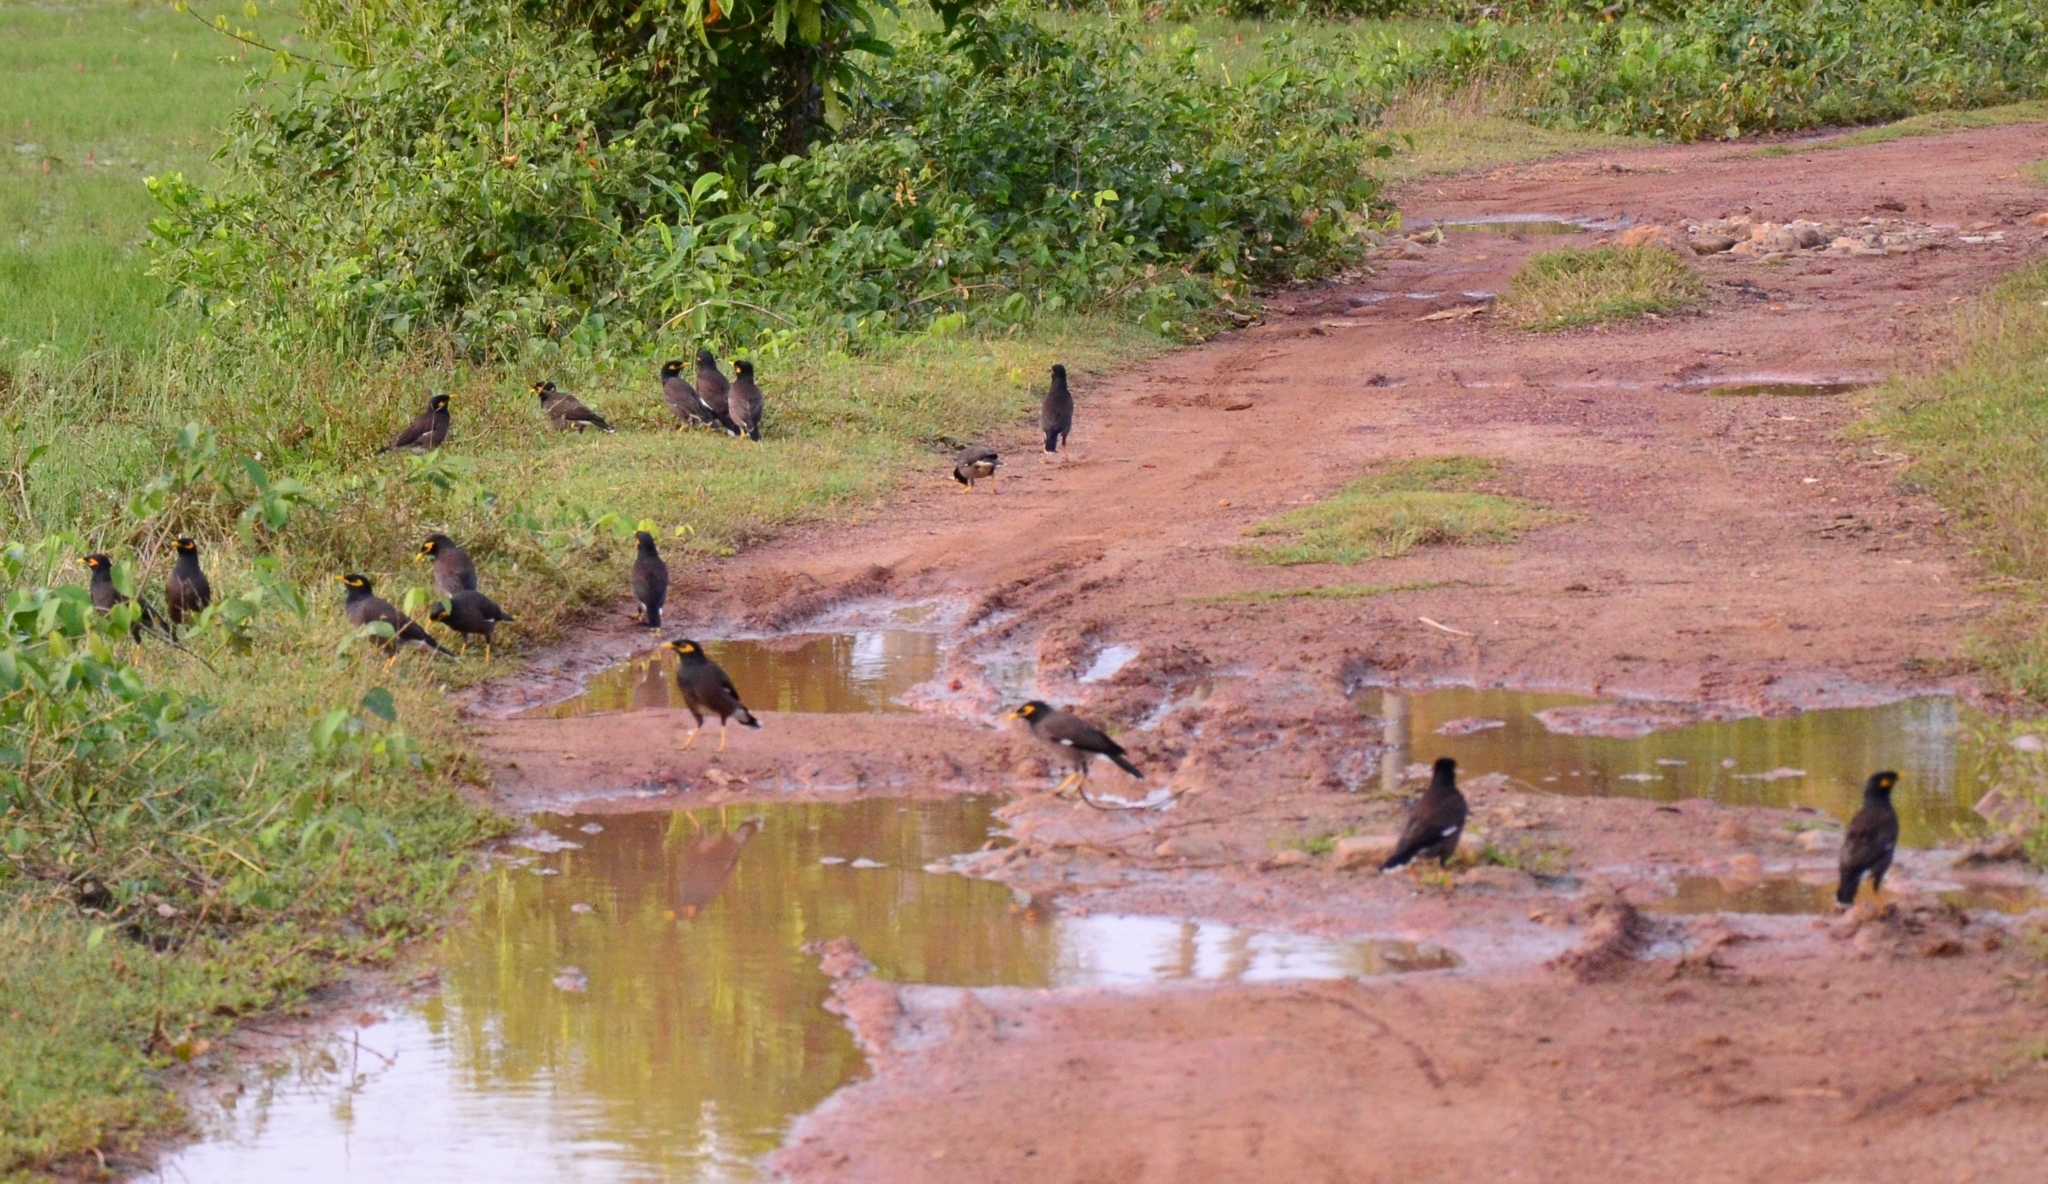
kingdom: Animalia
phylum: Chordata
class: Aves
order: Passeriformes
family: Sturnidae
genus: Acridotheres
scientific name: Acridotheres tristis
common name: Common myna
